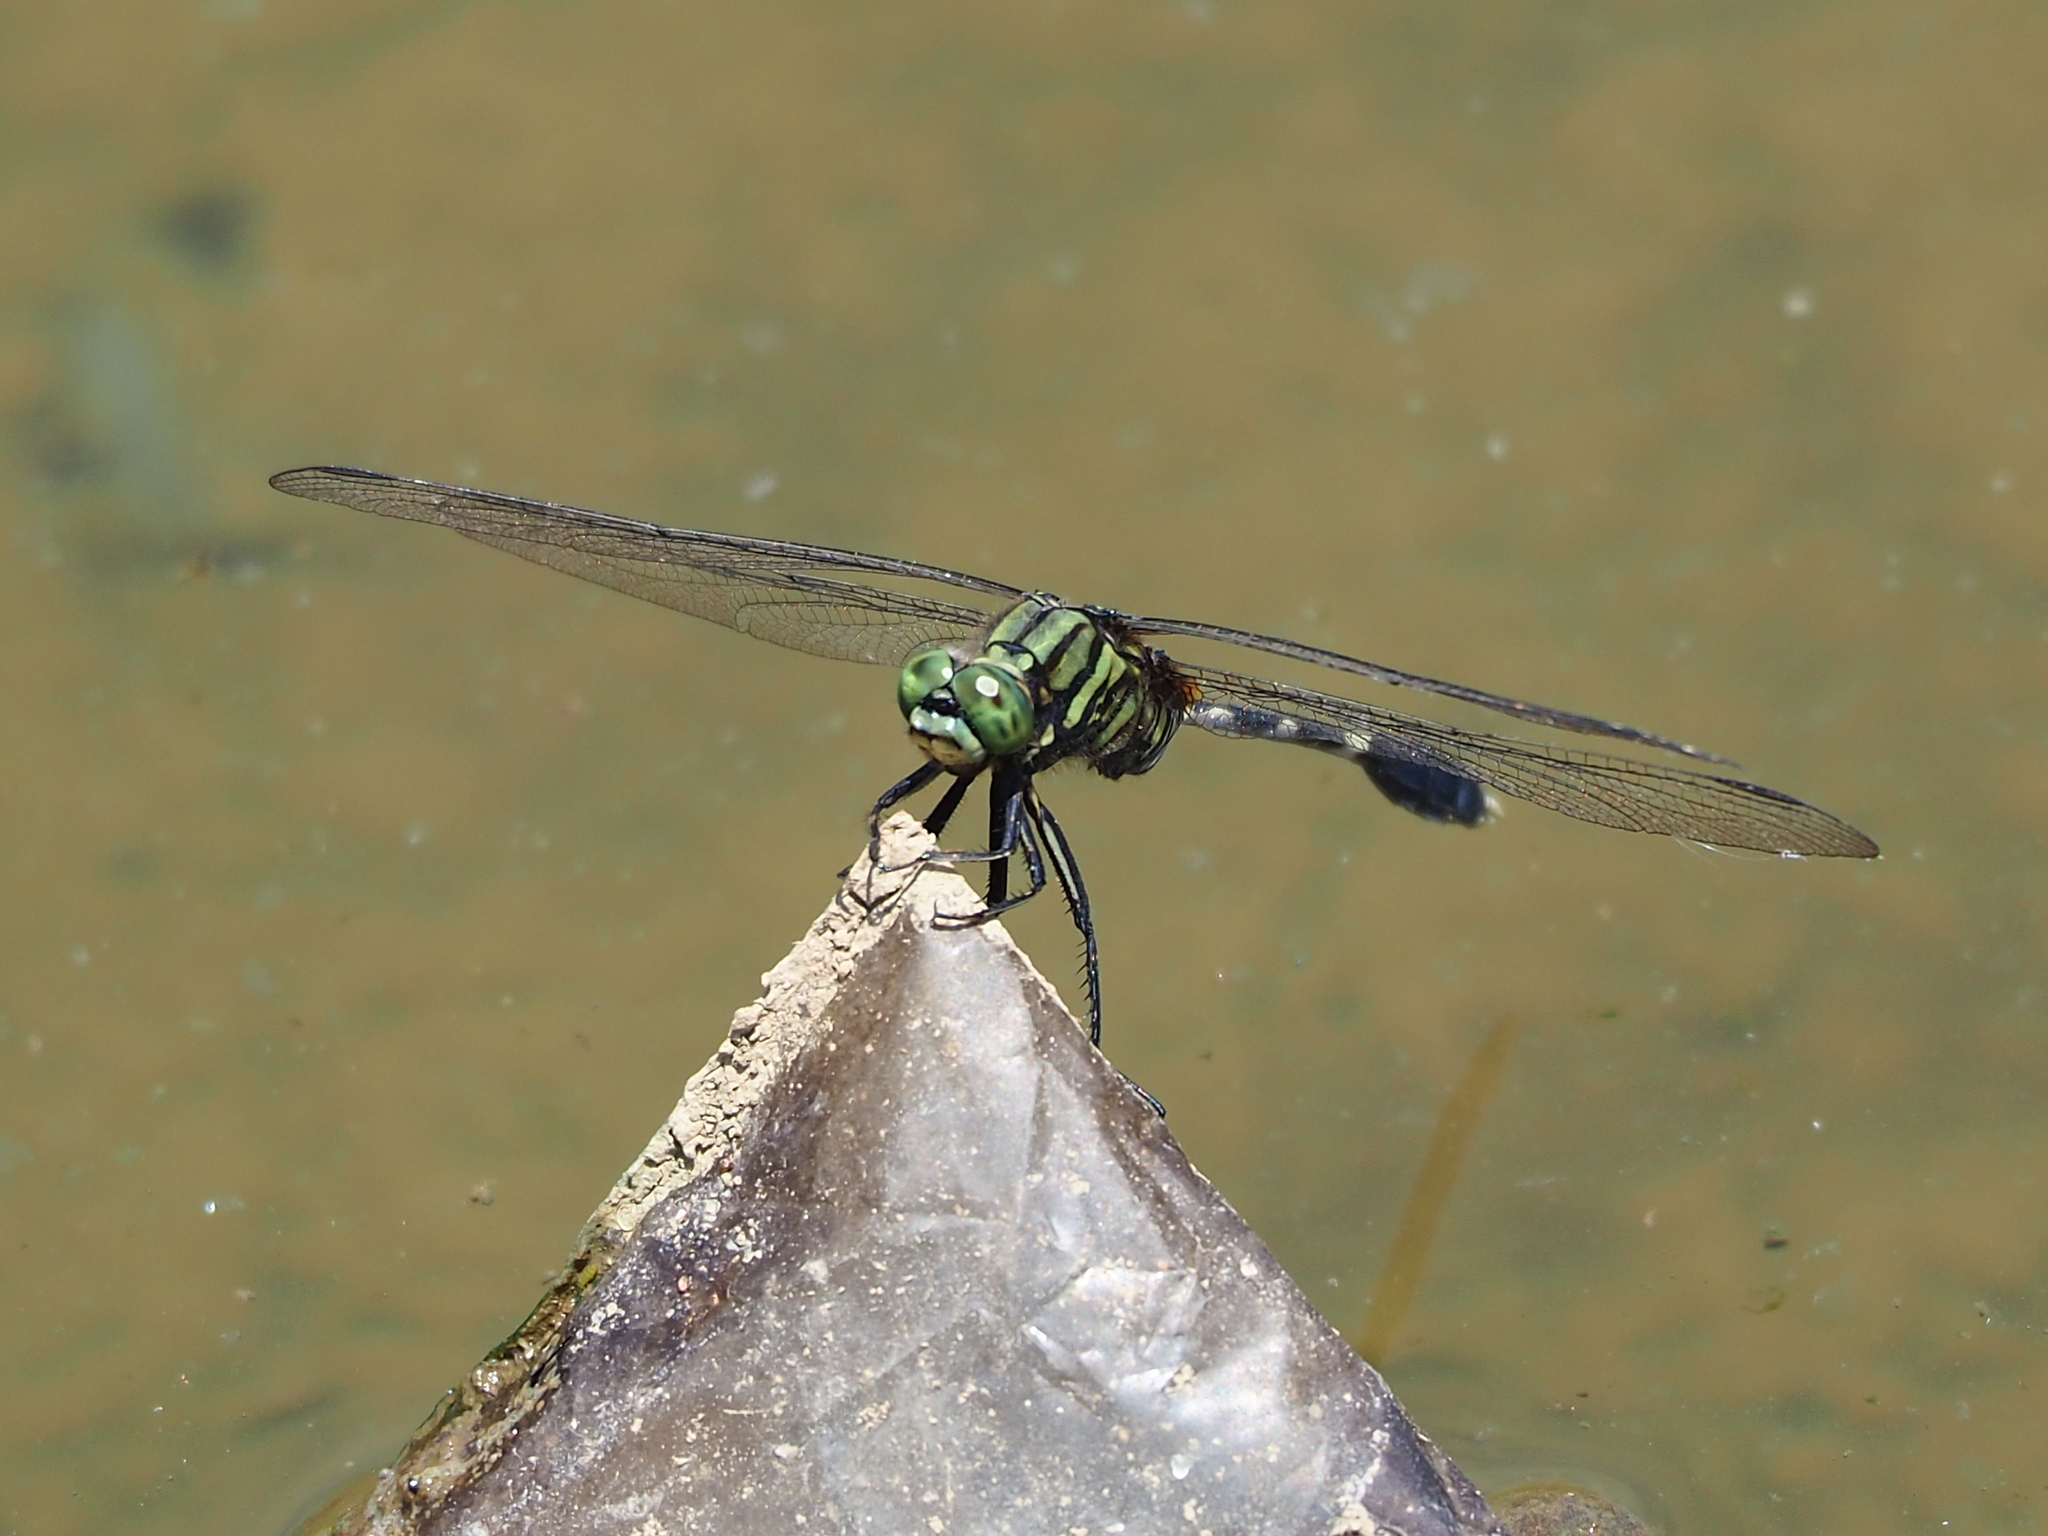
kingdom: Animalia
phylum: Arthropoda
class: Insecta
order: Odonata
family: Libellulidae
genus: Orthetrum
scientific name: Orthetrum sabina
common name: Slender skimmer
